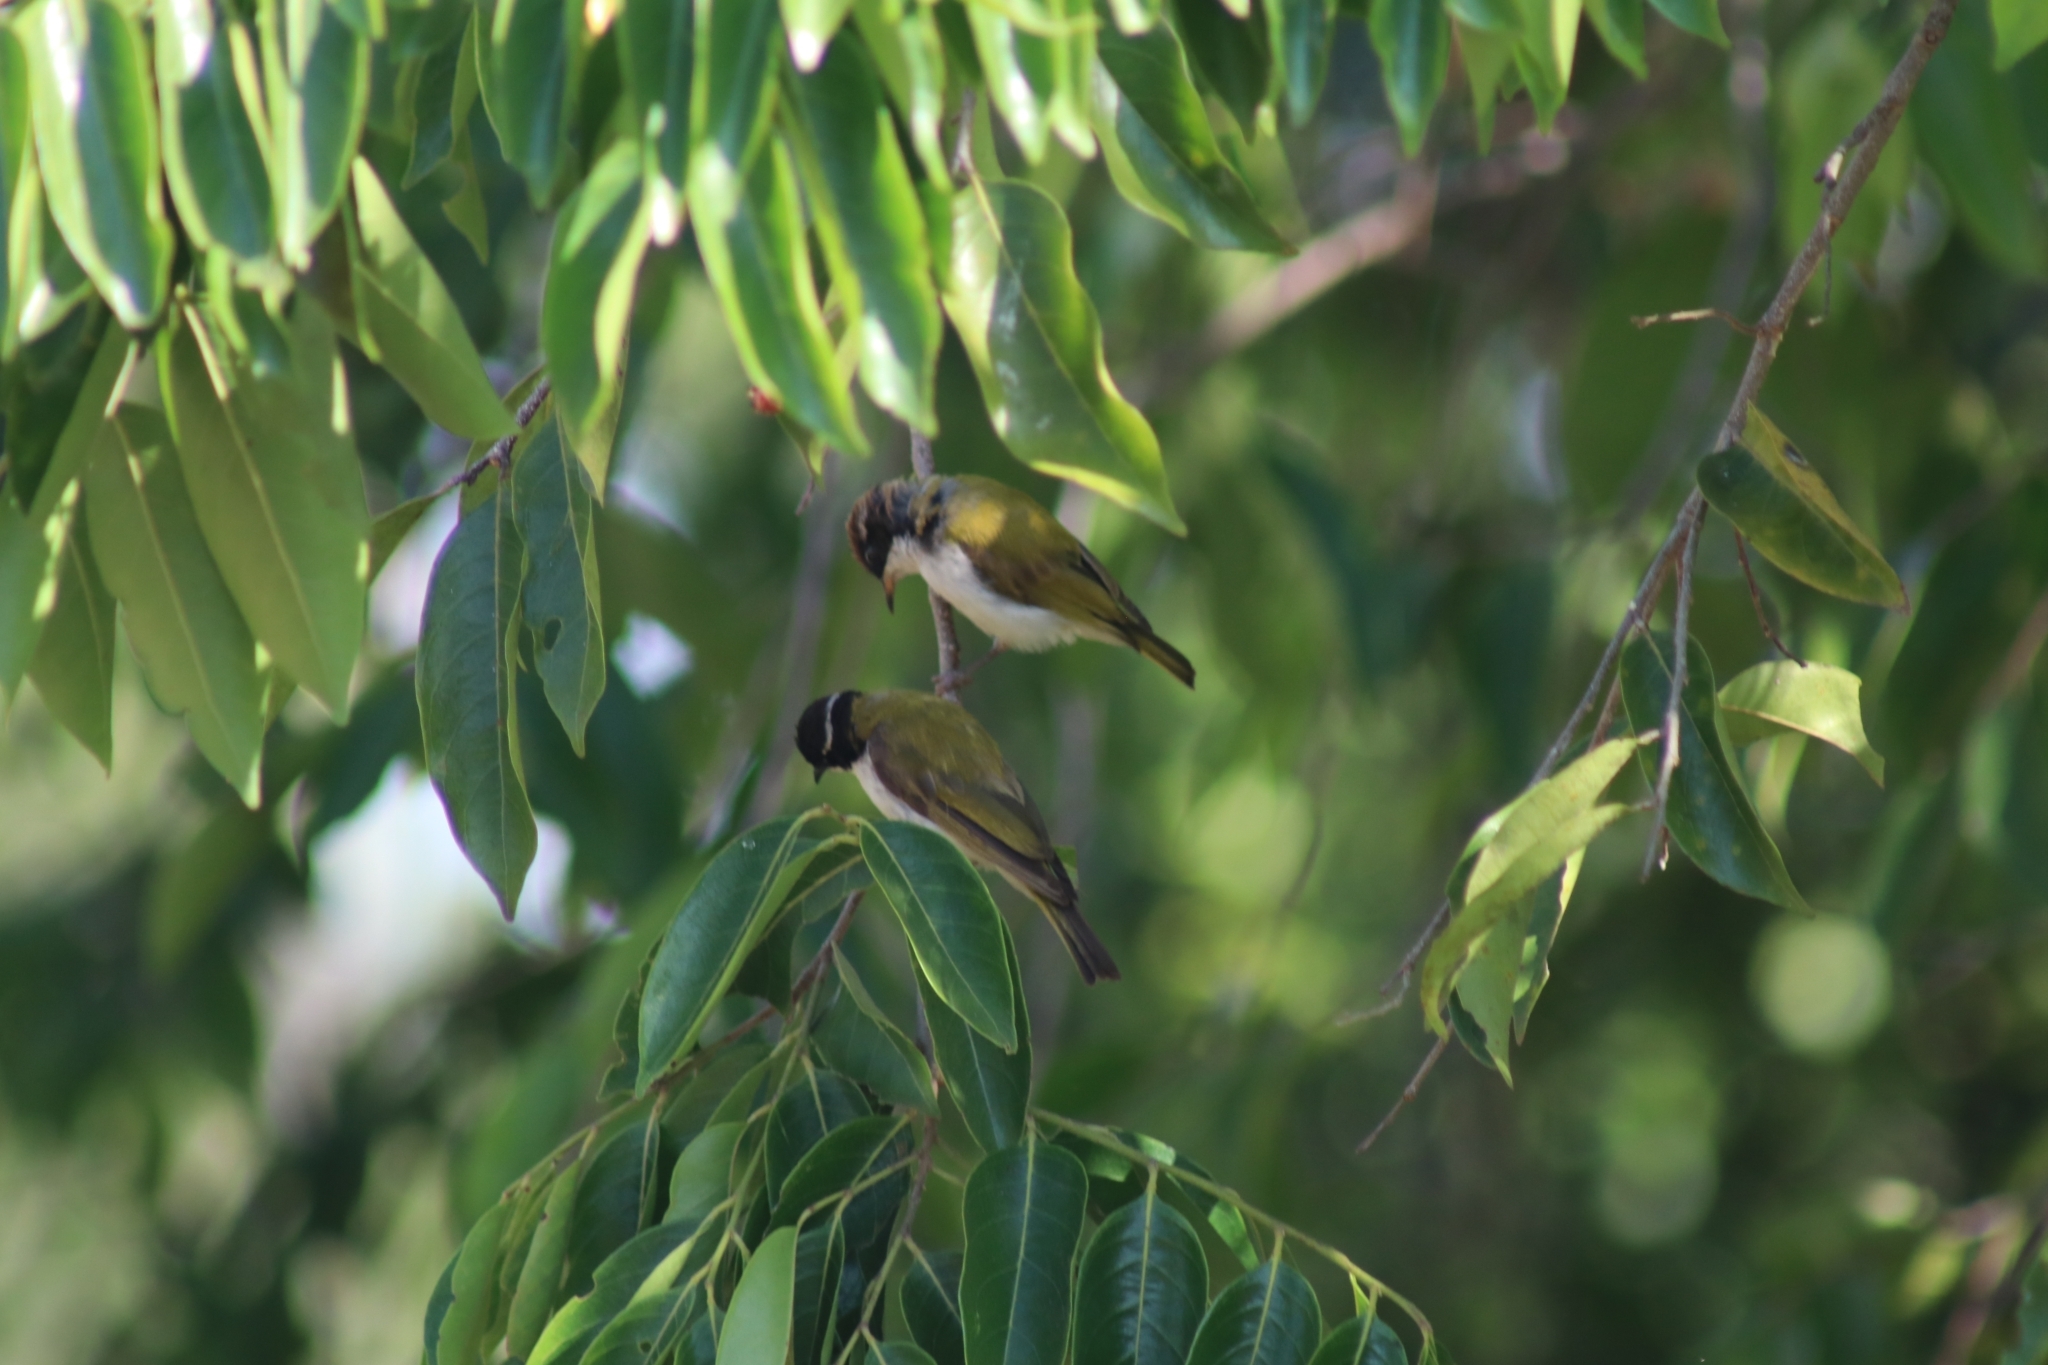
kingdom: Animalia
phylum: Chordata
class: Aves
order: Passeriformes
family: Meliphagidae
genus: Melithreptus
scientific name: Melithreptus albogularis
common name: White-throated honeyeater
